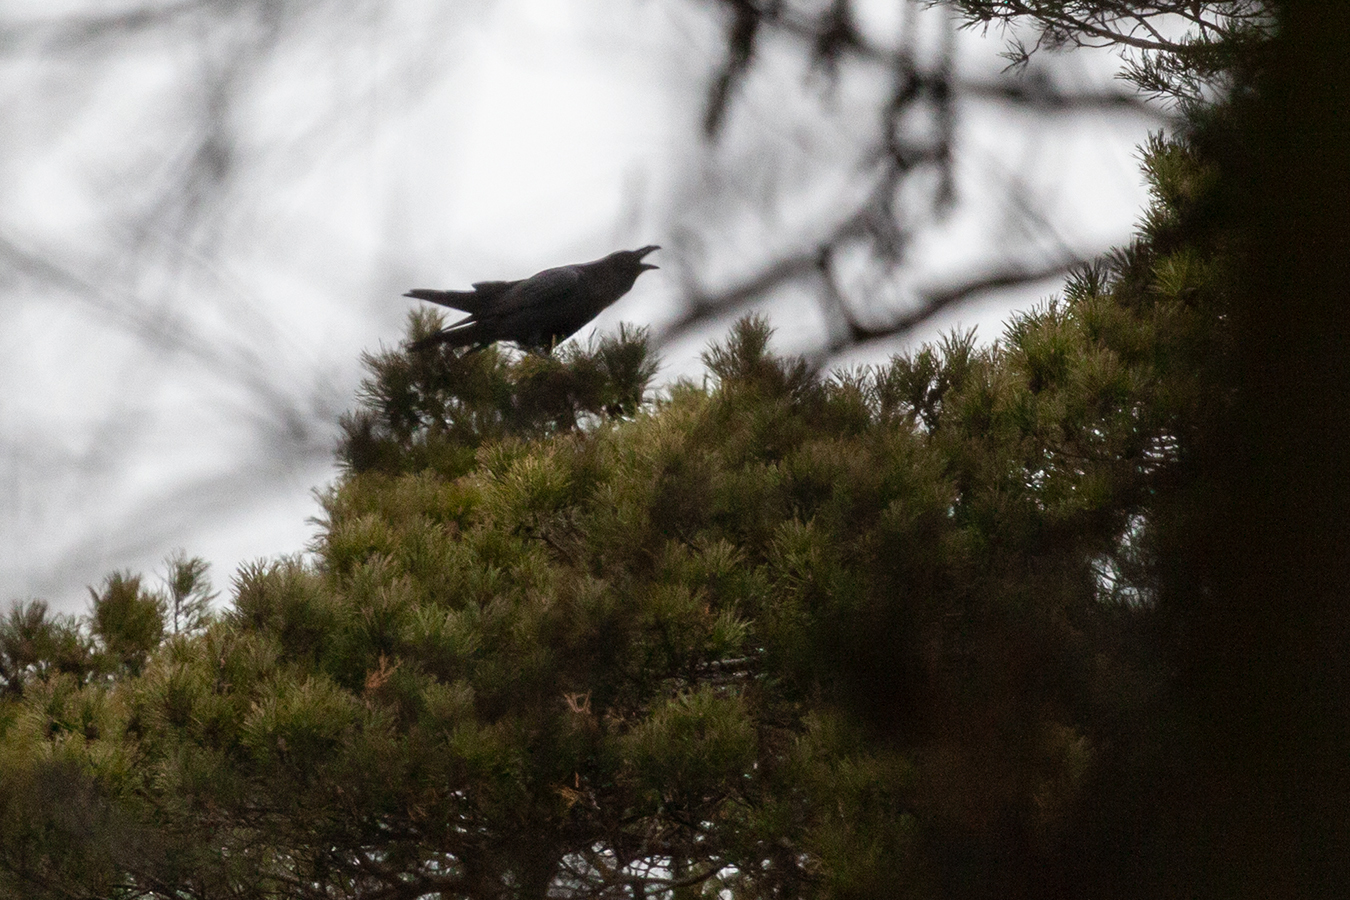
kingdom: Animalia
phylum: Chordata
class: Aves
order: Passeriformes
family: Corvidae
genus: Corvus
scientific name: Corvus corax
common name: Common raven
